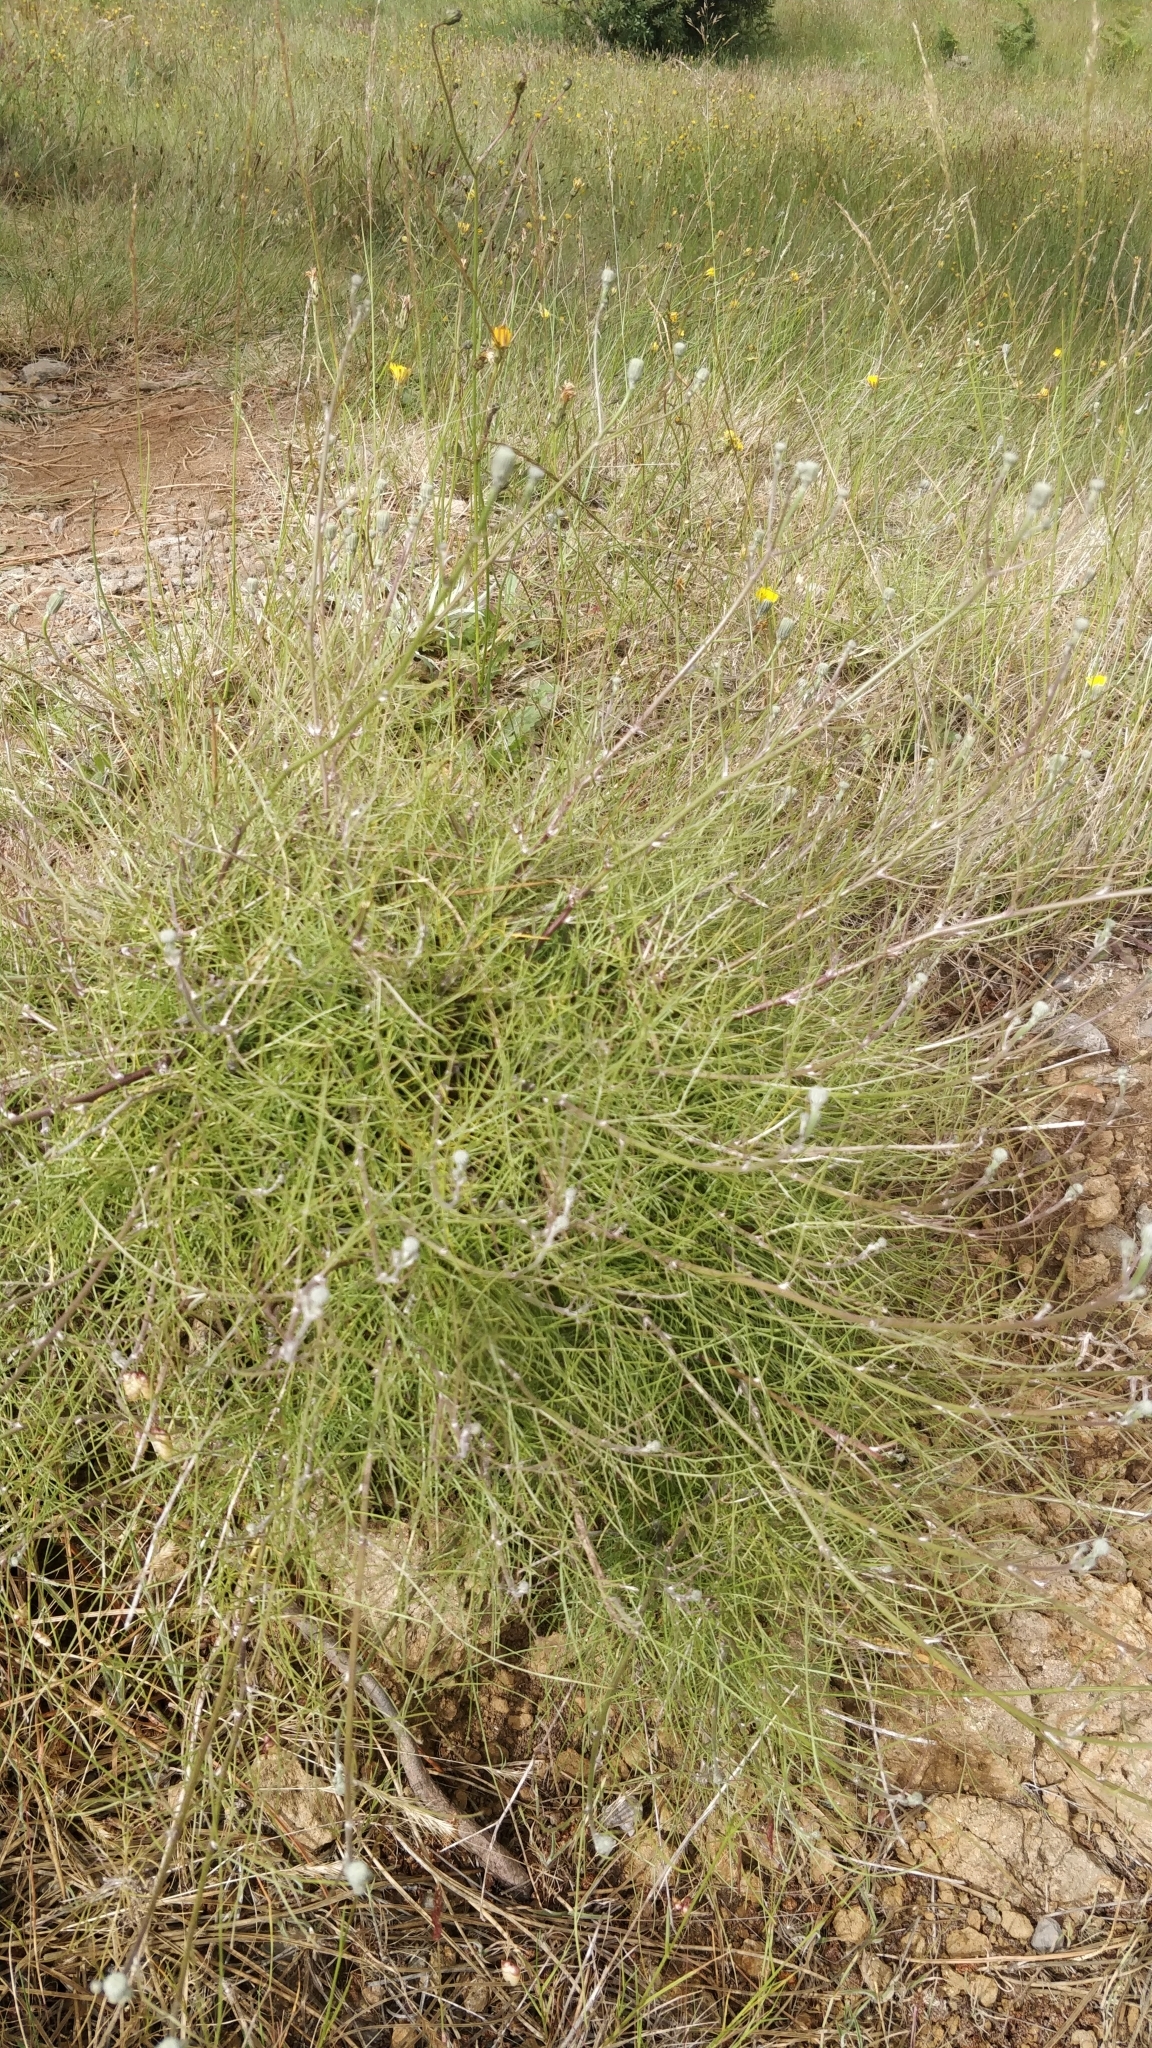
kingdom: Plantae
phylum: Tracheophyta
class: Magnoliopsida
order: Asterales
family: Asteraceae
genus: Tolpis
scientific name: Tolpis succulenta
